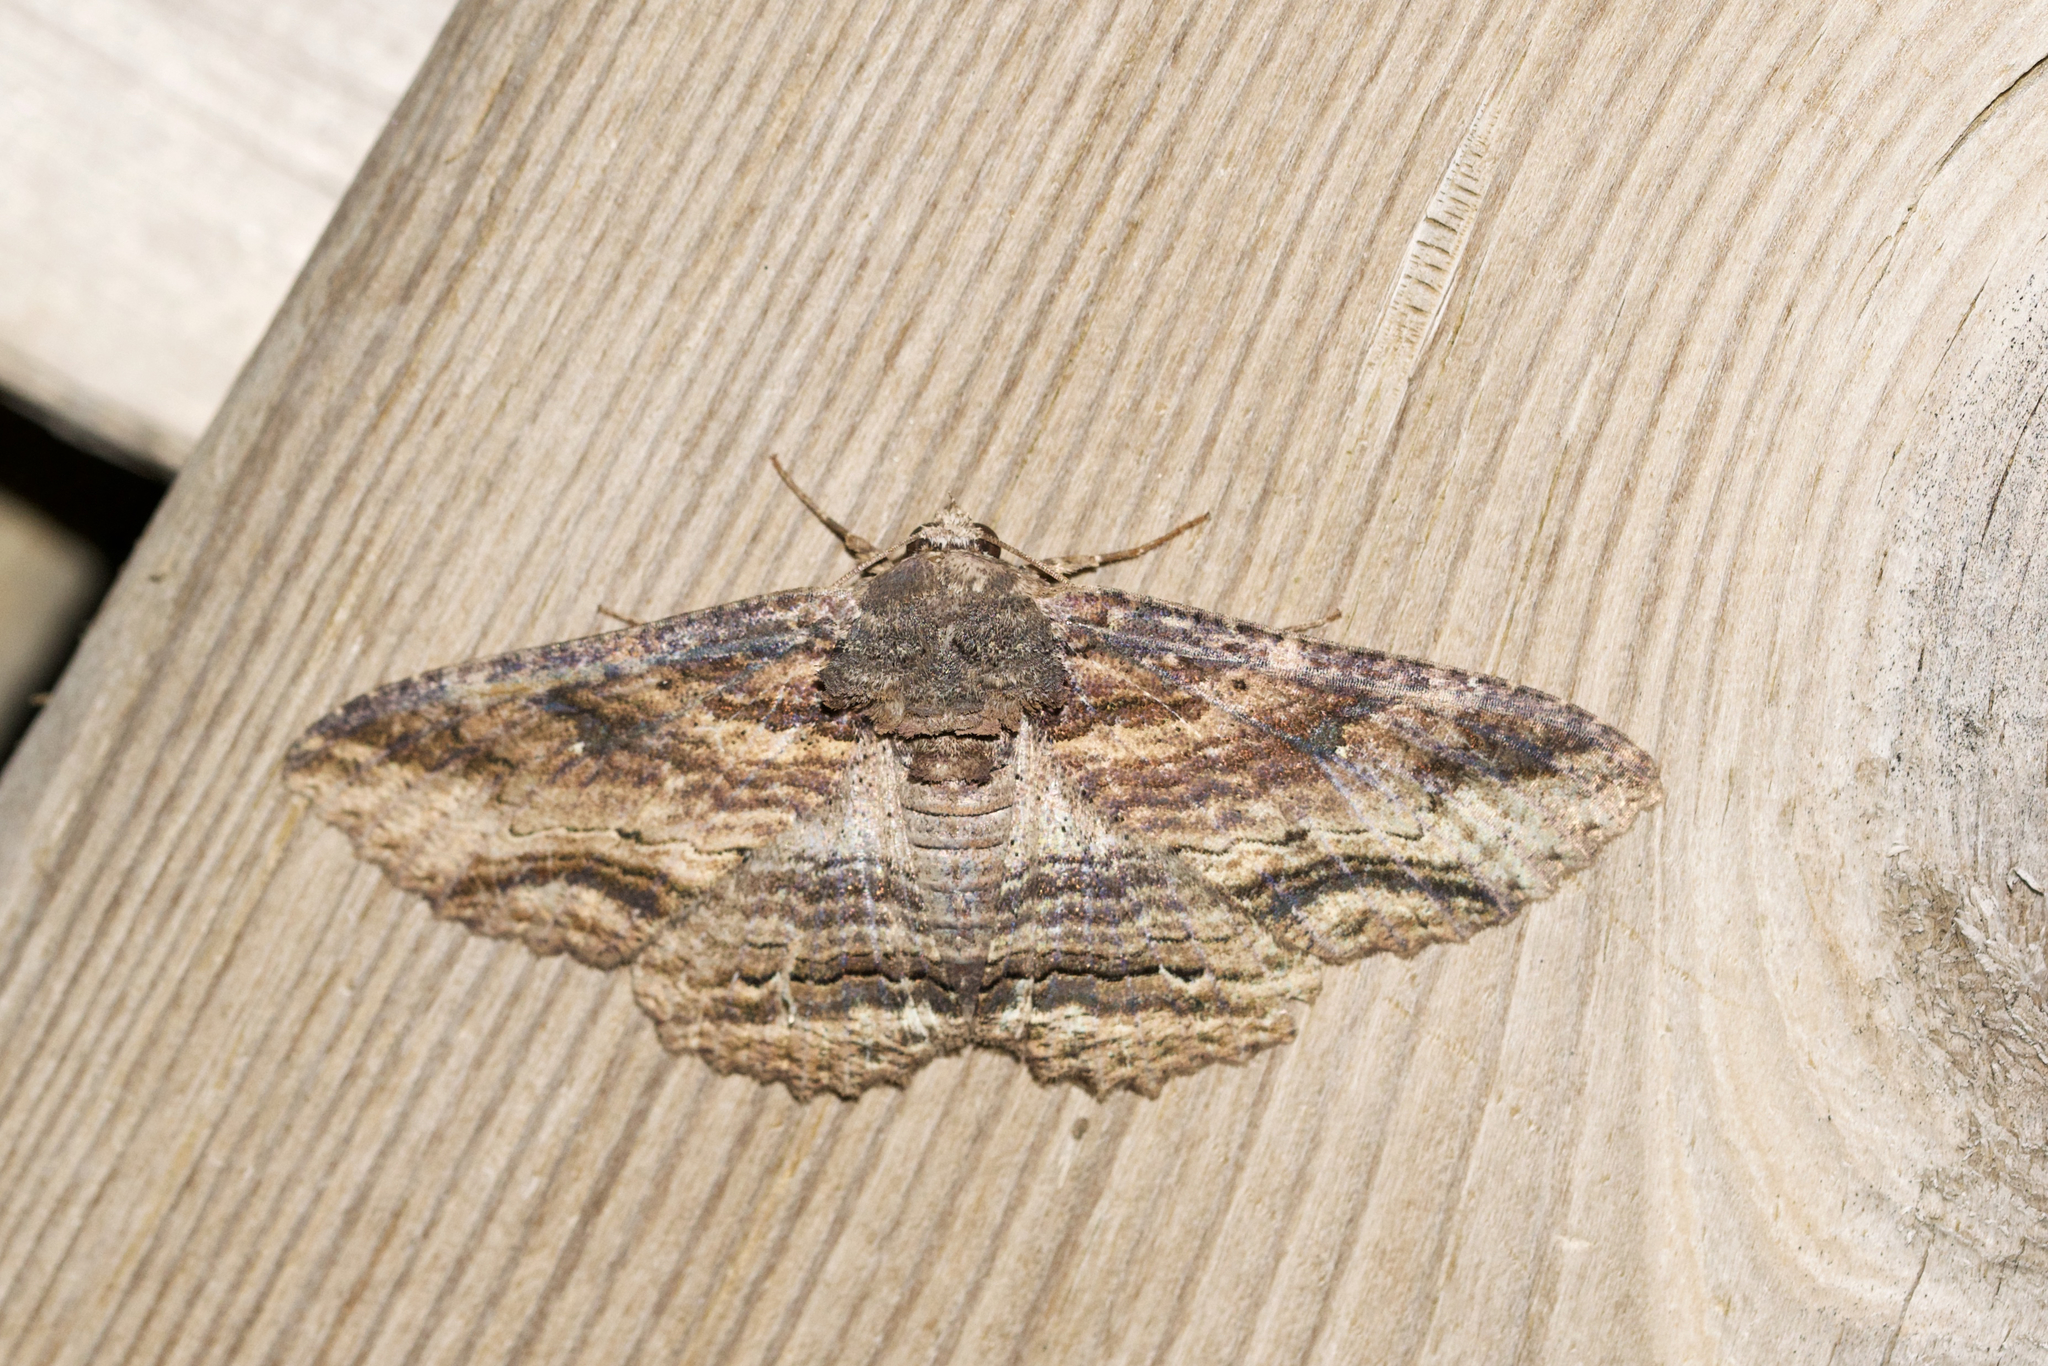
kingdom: Animalia
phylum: Arthropoda
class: Insecta
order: Lepidoptera
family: Erebidae
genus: Zale
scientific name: Zale lunata
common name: Lunate zale moth
